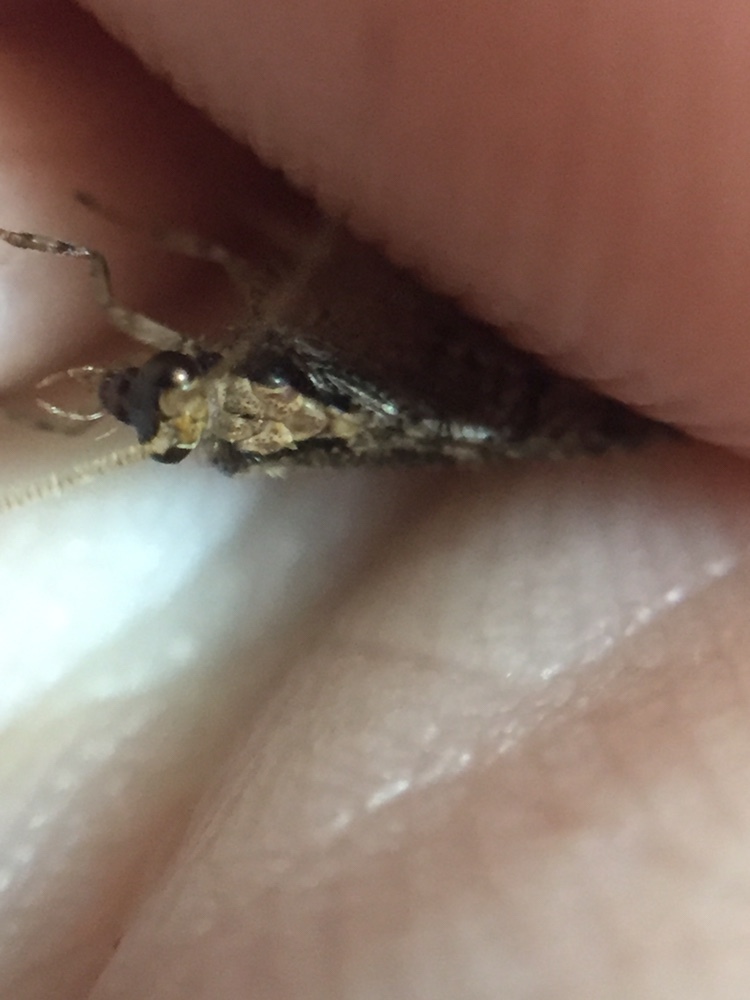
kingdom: Animalia
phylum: Arthropoda
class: Insecta
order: Neuroptera
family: Hemerobiidae
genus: Wesmaelius
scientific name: Wesmaelius subnebulosus
